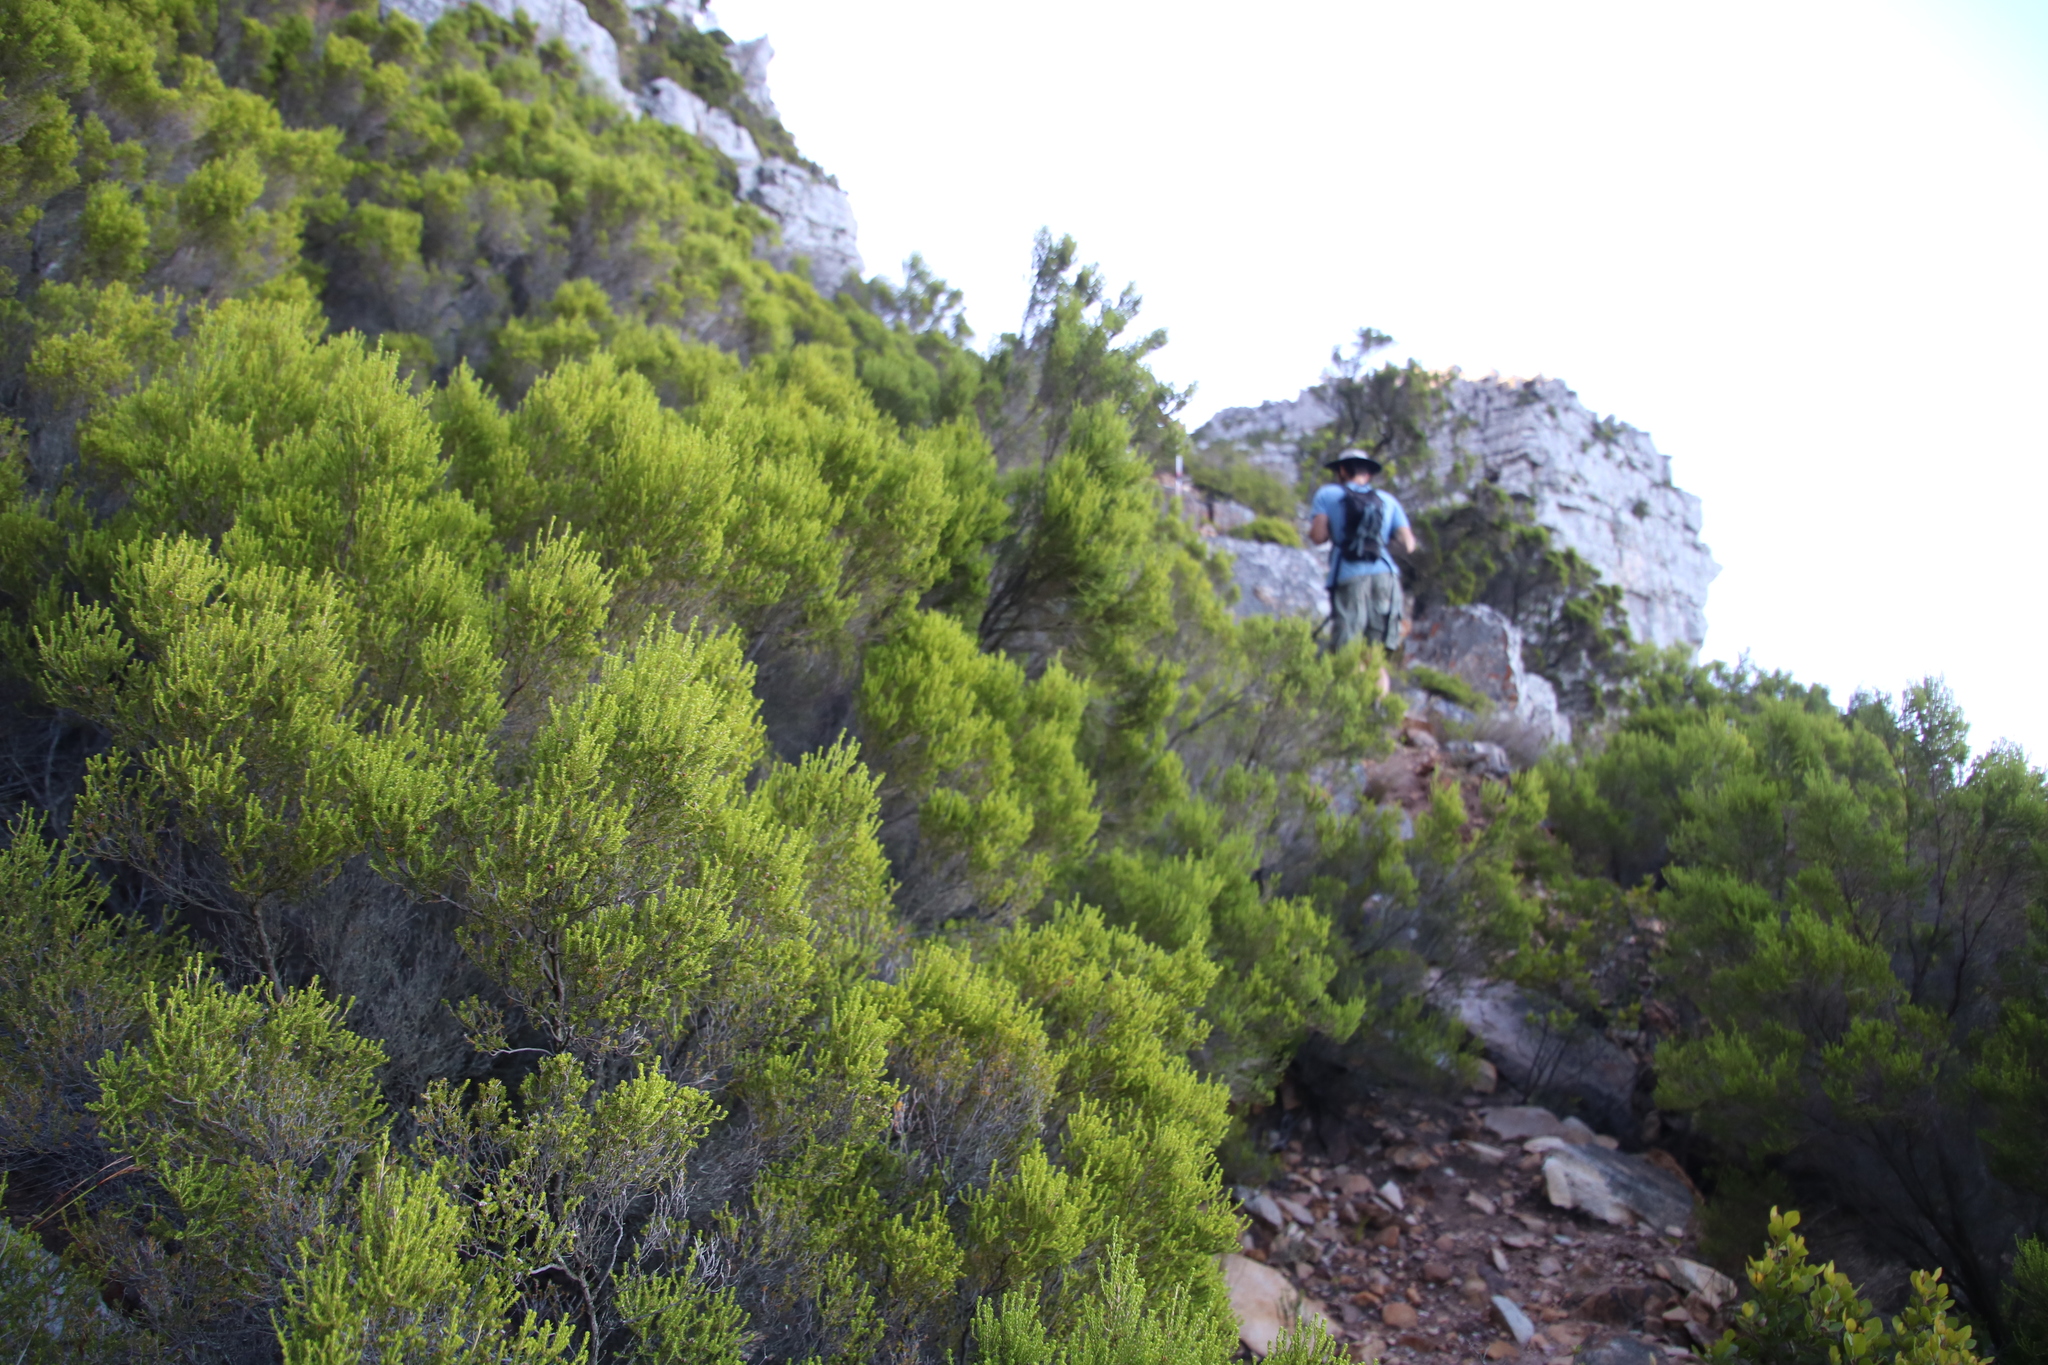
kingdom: Plantae
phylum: Tracheophyta
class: Magnoliopsida
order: Ericales
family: Ericaceae
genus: Erica
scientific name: Erica tristis
